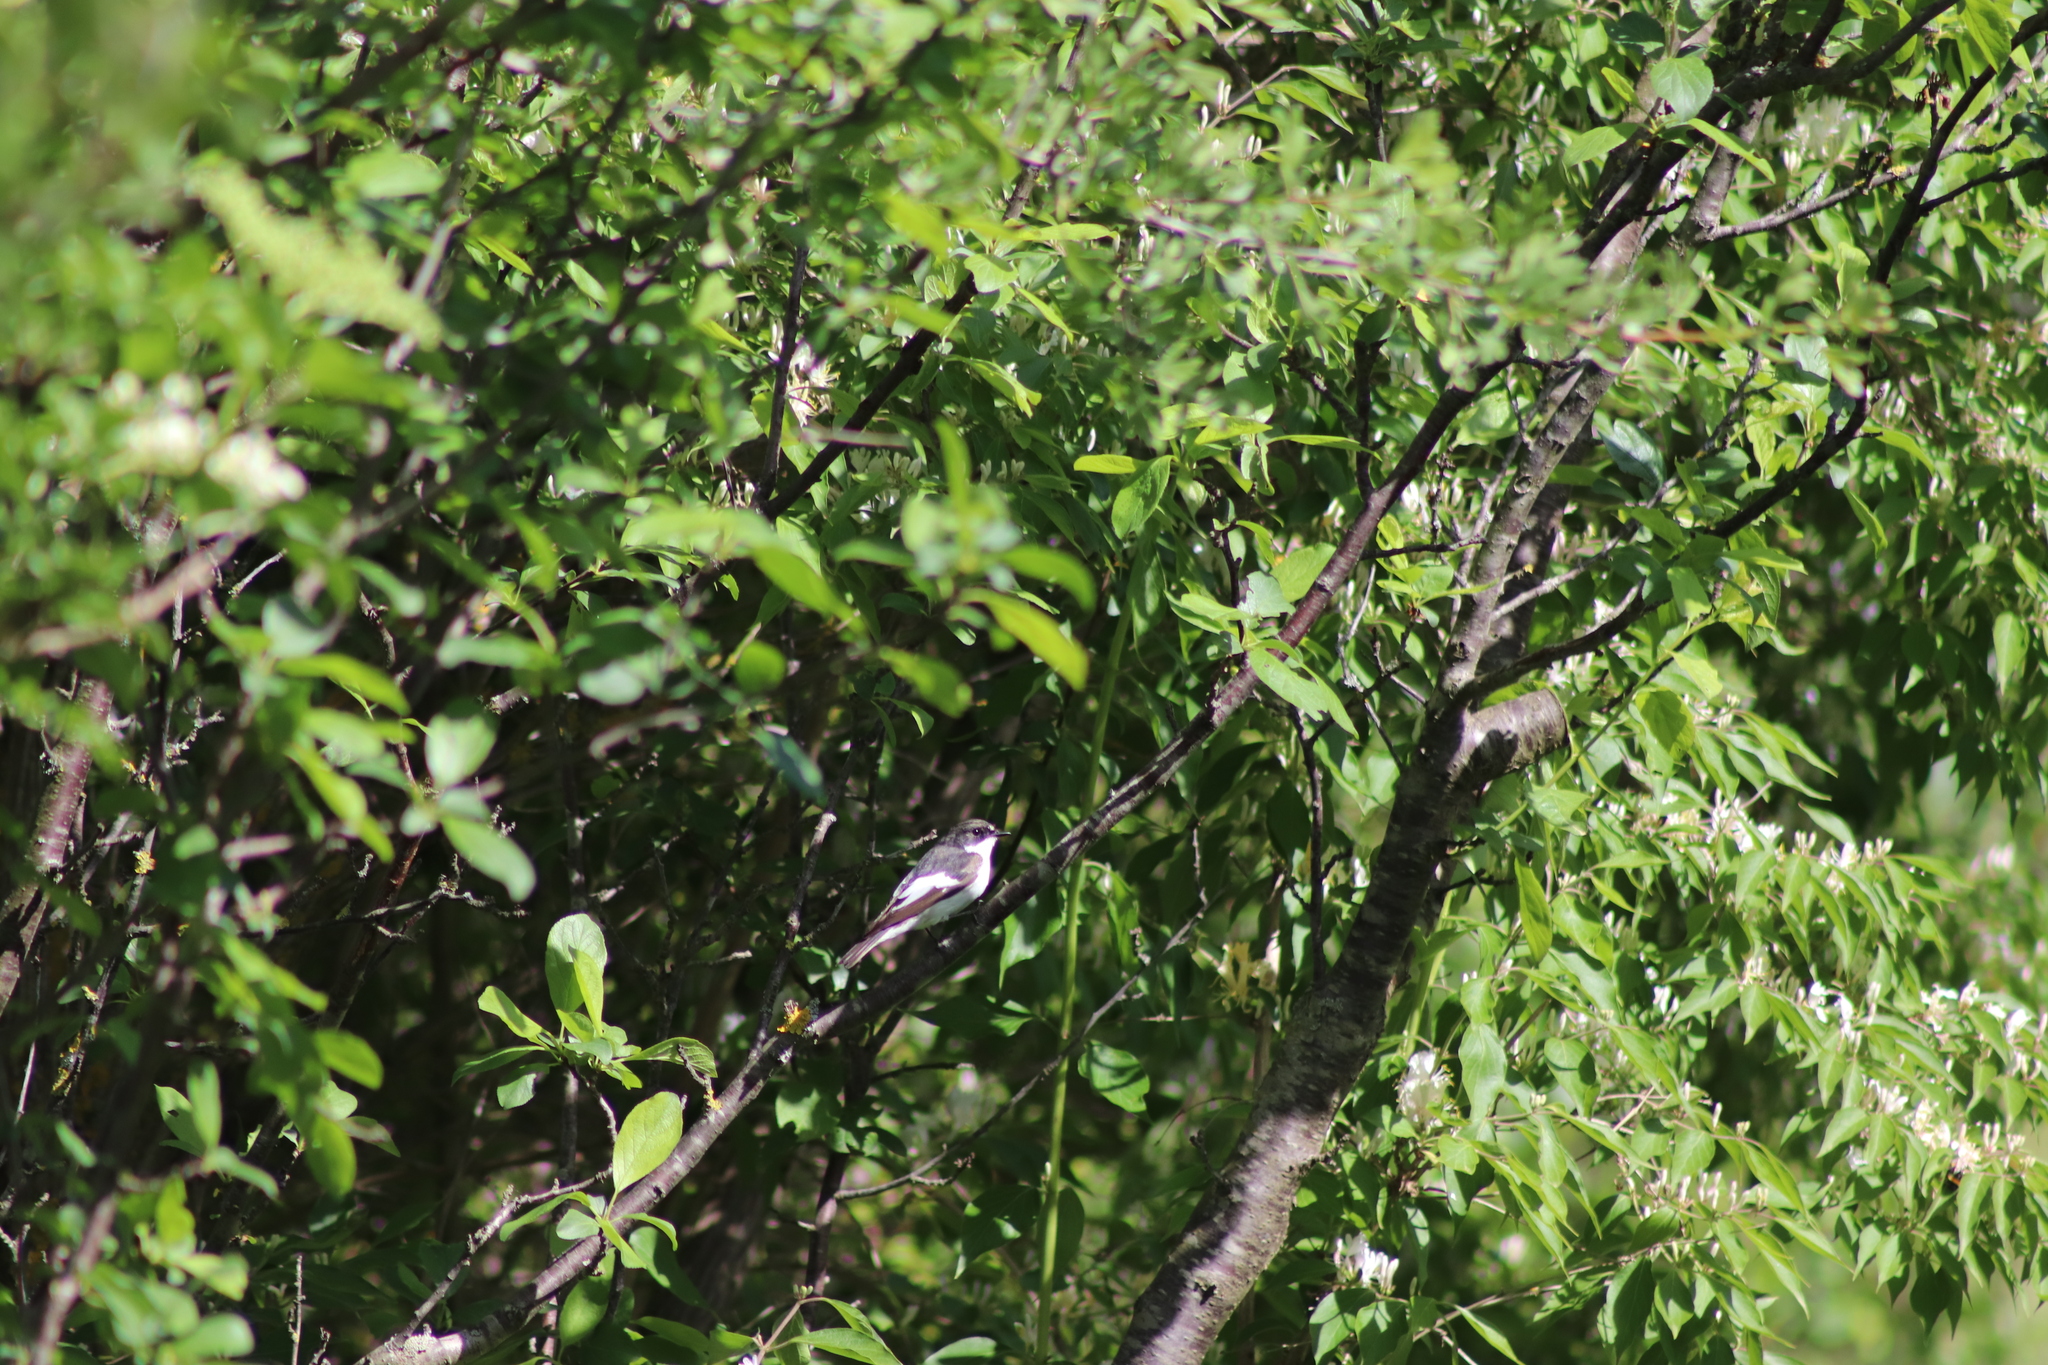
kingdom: Animalia
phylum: Chordata
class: Aves
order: Passeriformes
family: Muscicapidae
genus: Ficedula
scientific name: Ficedula hypoleuca
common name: European pied flycatcher
